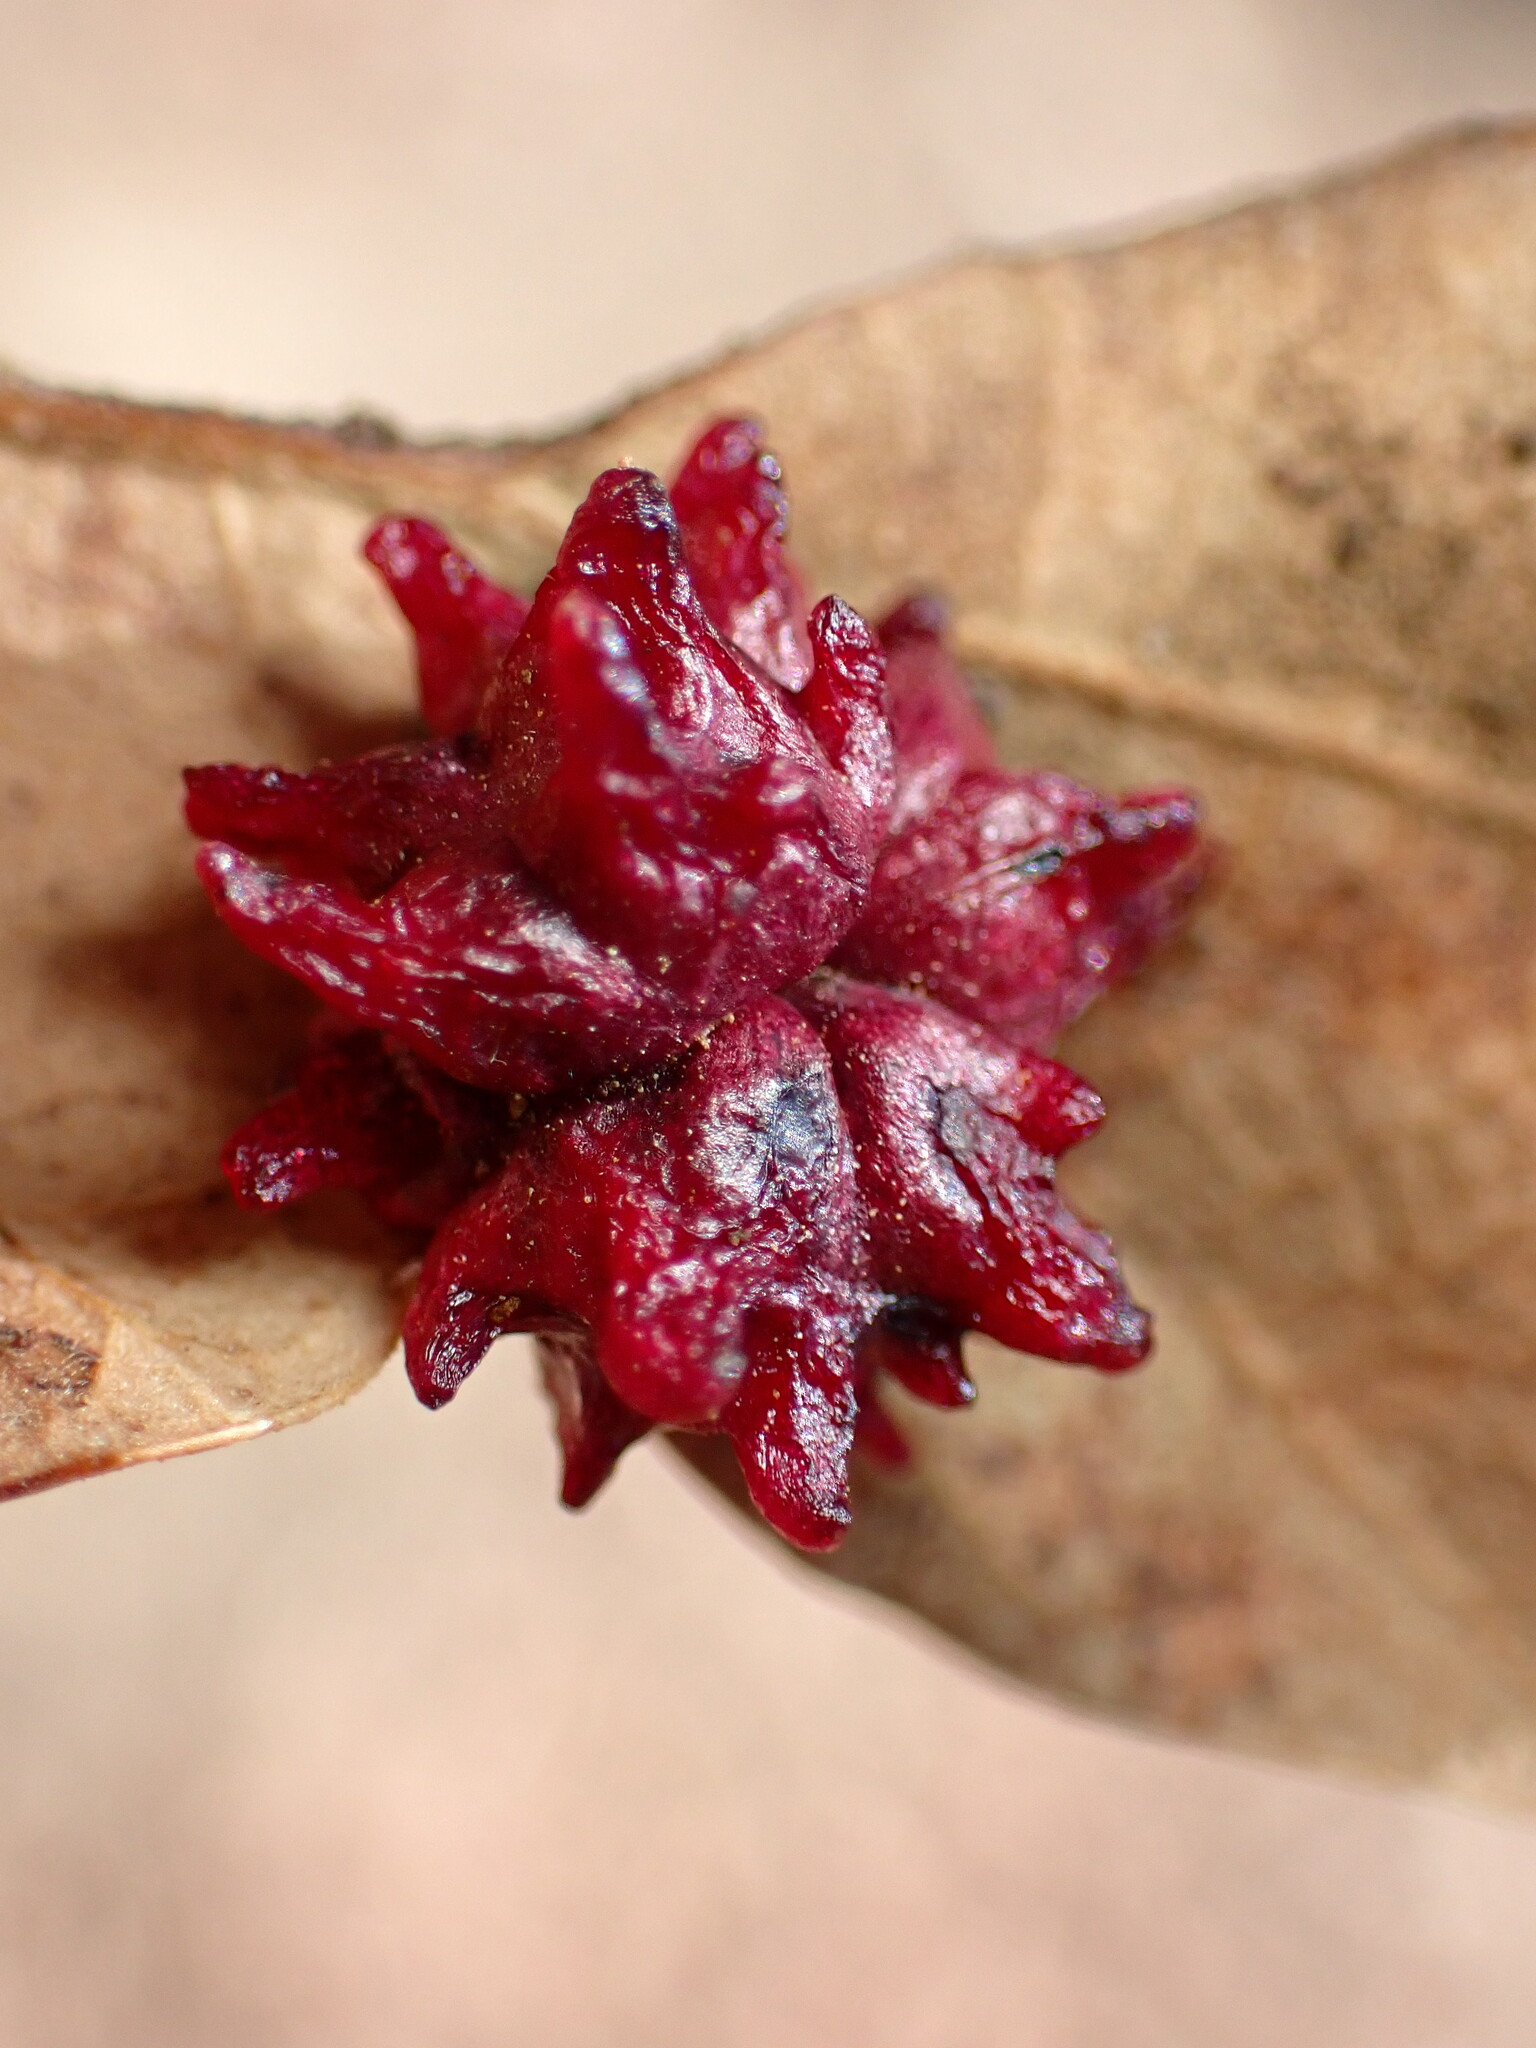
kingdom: Animalia
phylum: Arthropoda
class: Insecta
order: Hymenoptera
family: Cynipidae
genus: Cynips
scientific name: Cynips
